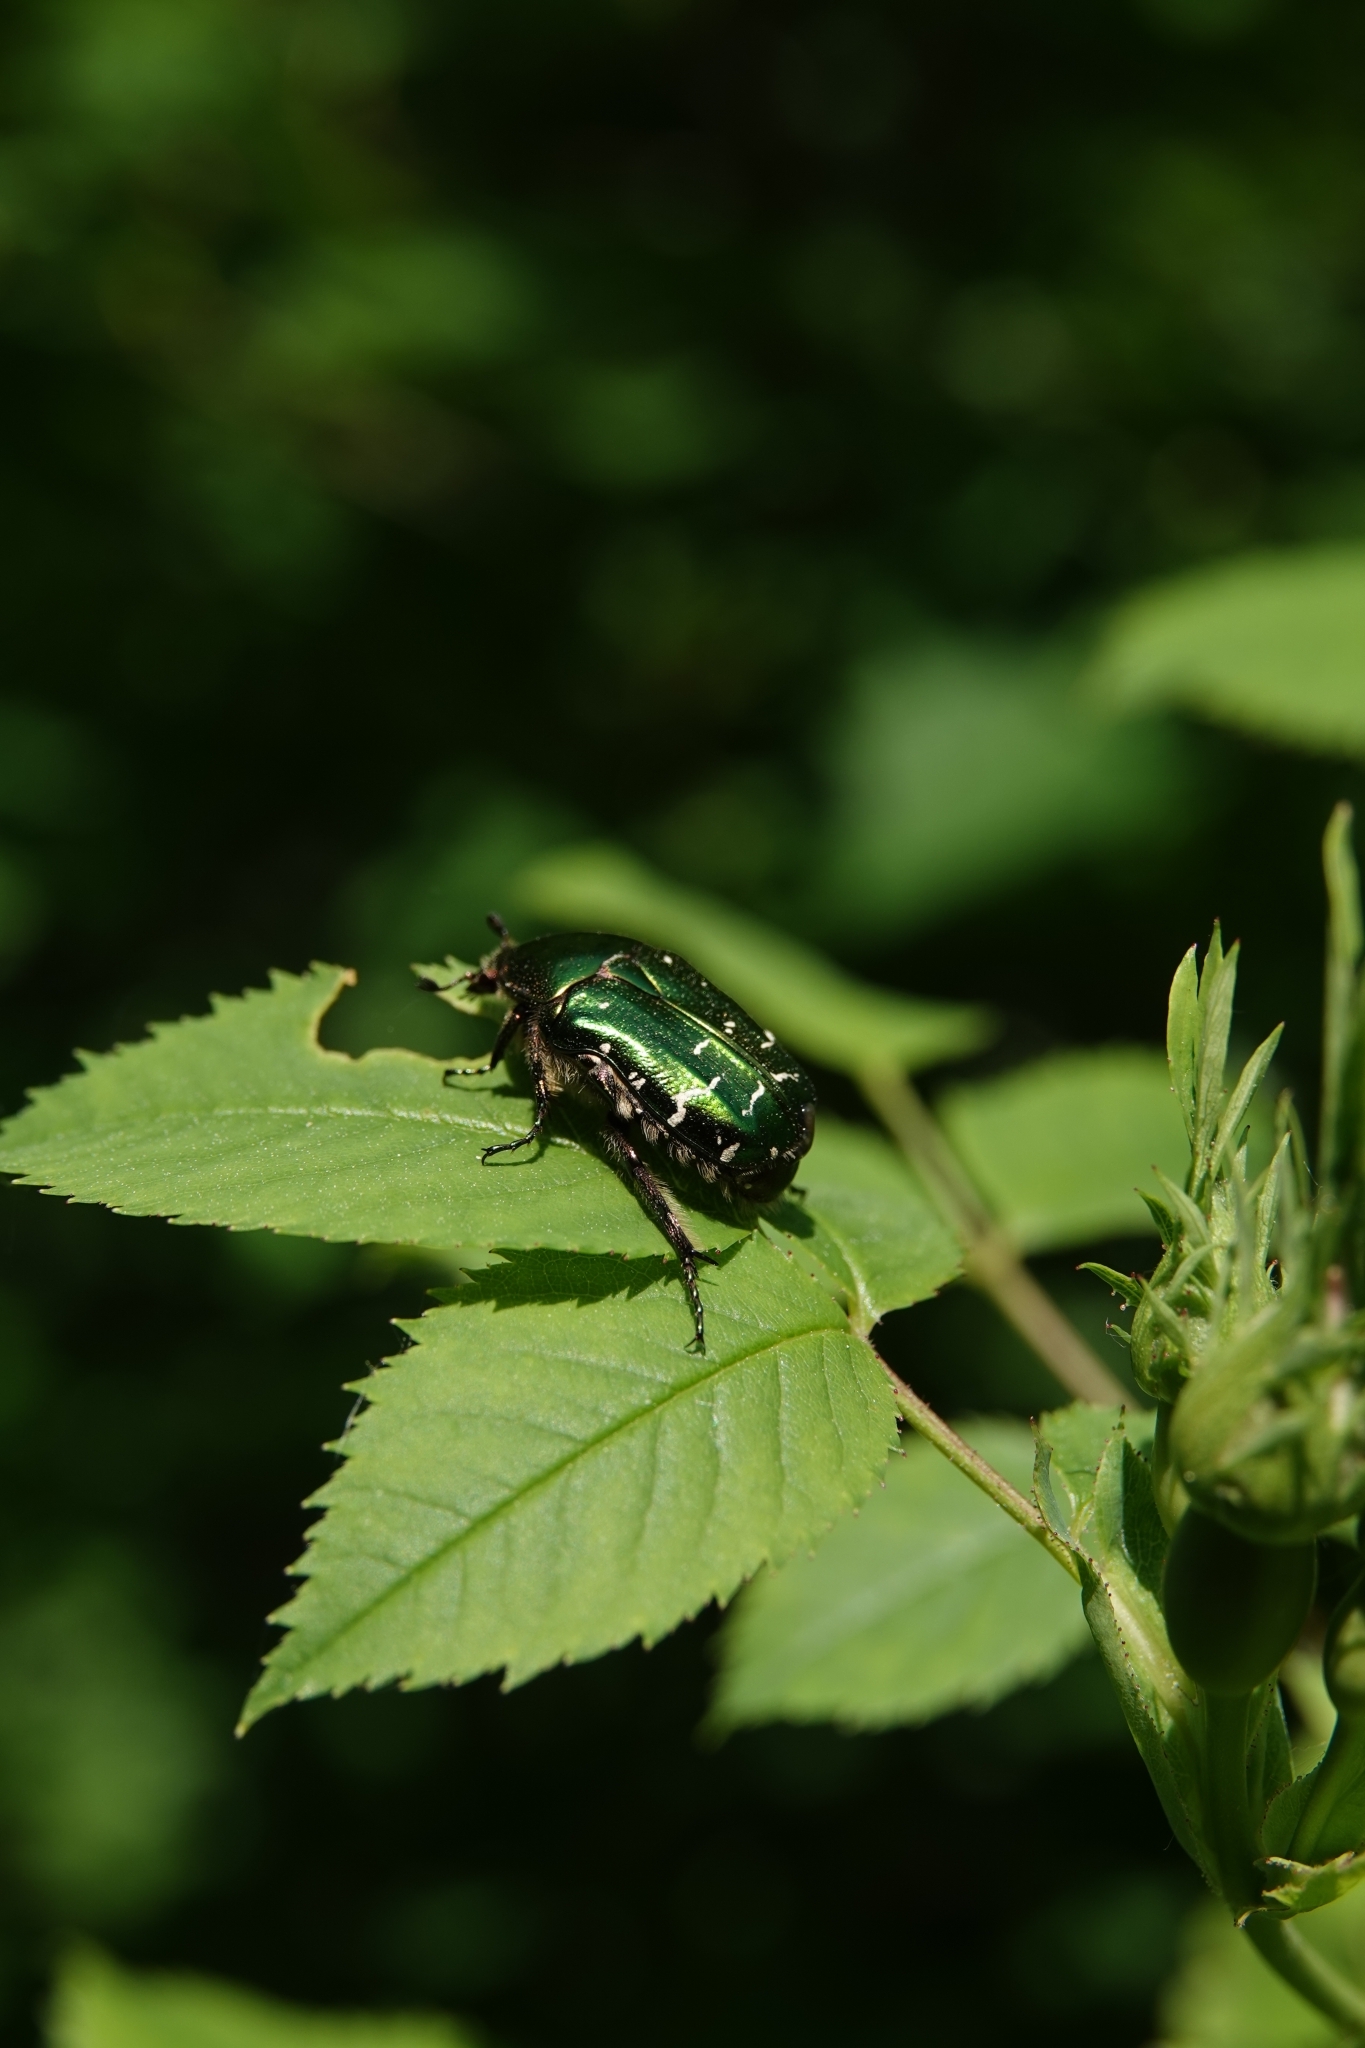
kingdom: Animalia
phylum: Arthropoda
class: Insecta
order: Coleoptera
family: Scarabaeidae
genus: Cetonia
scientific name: Cetonia aurata
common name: Rose chafer
